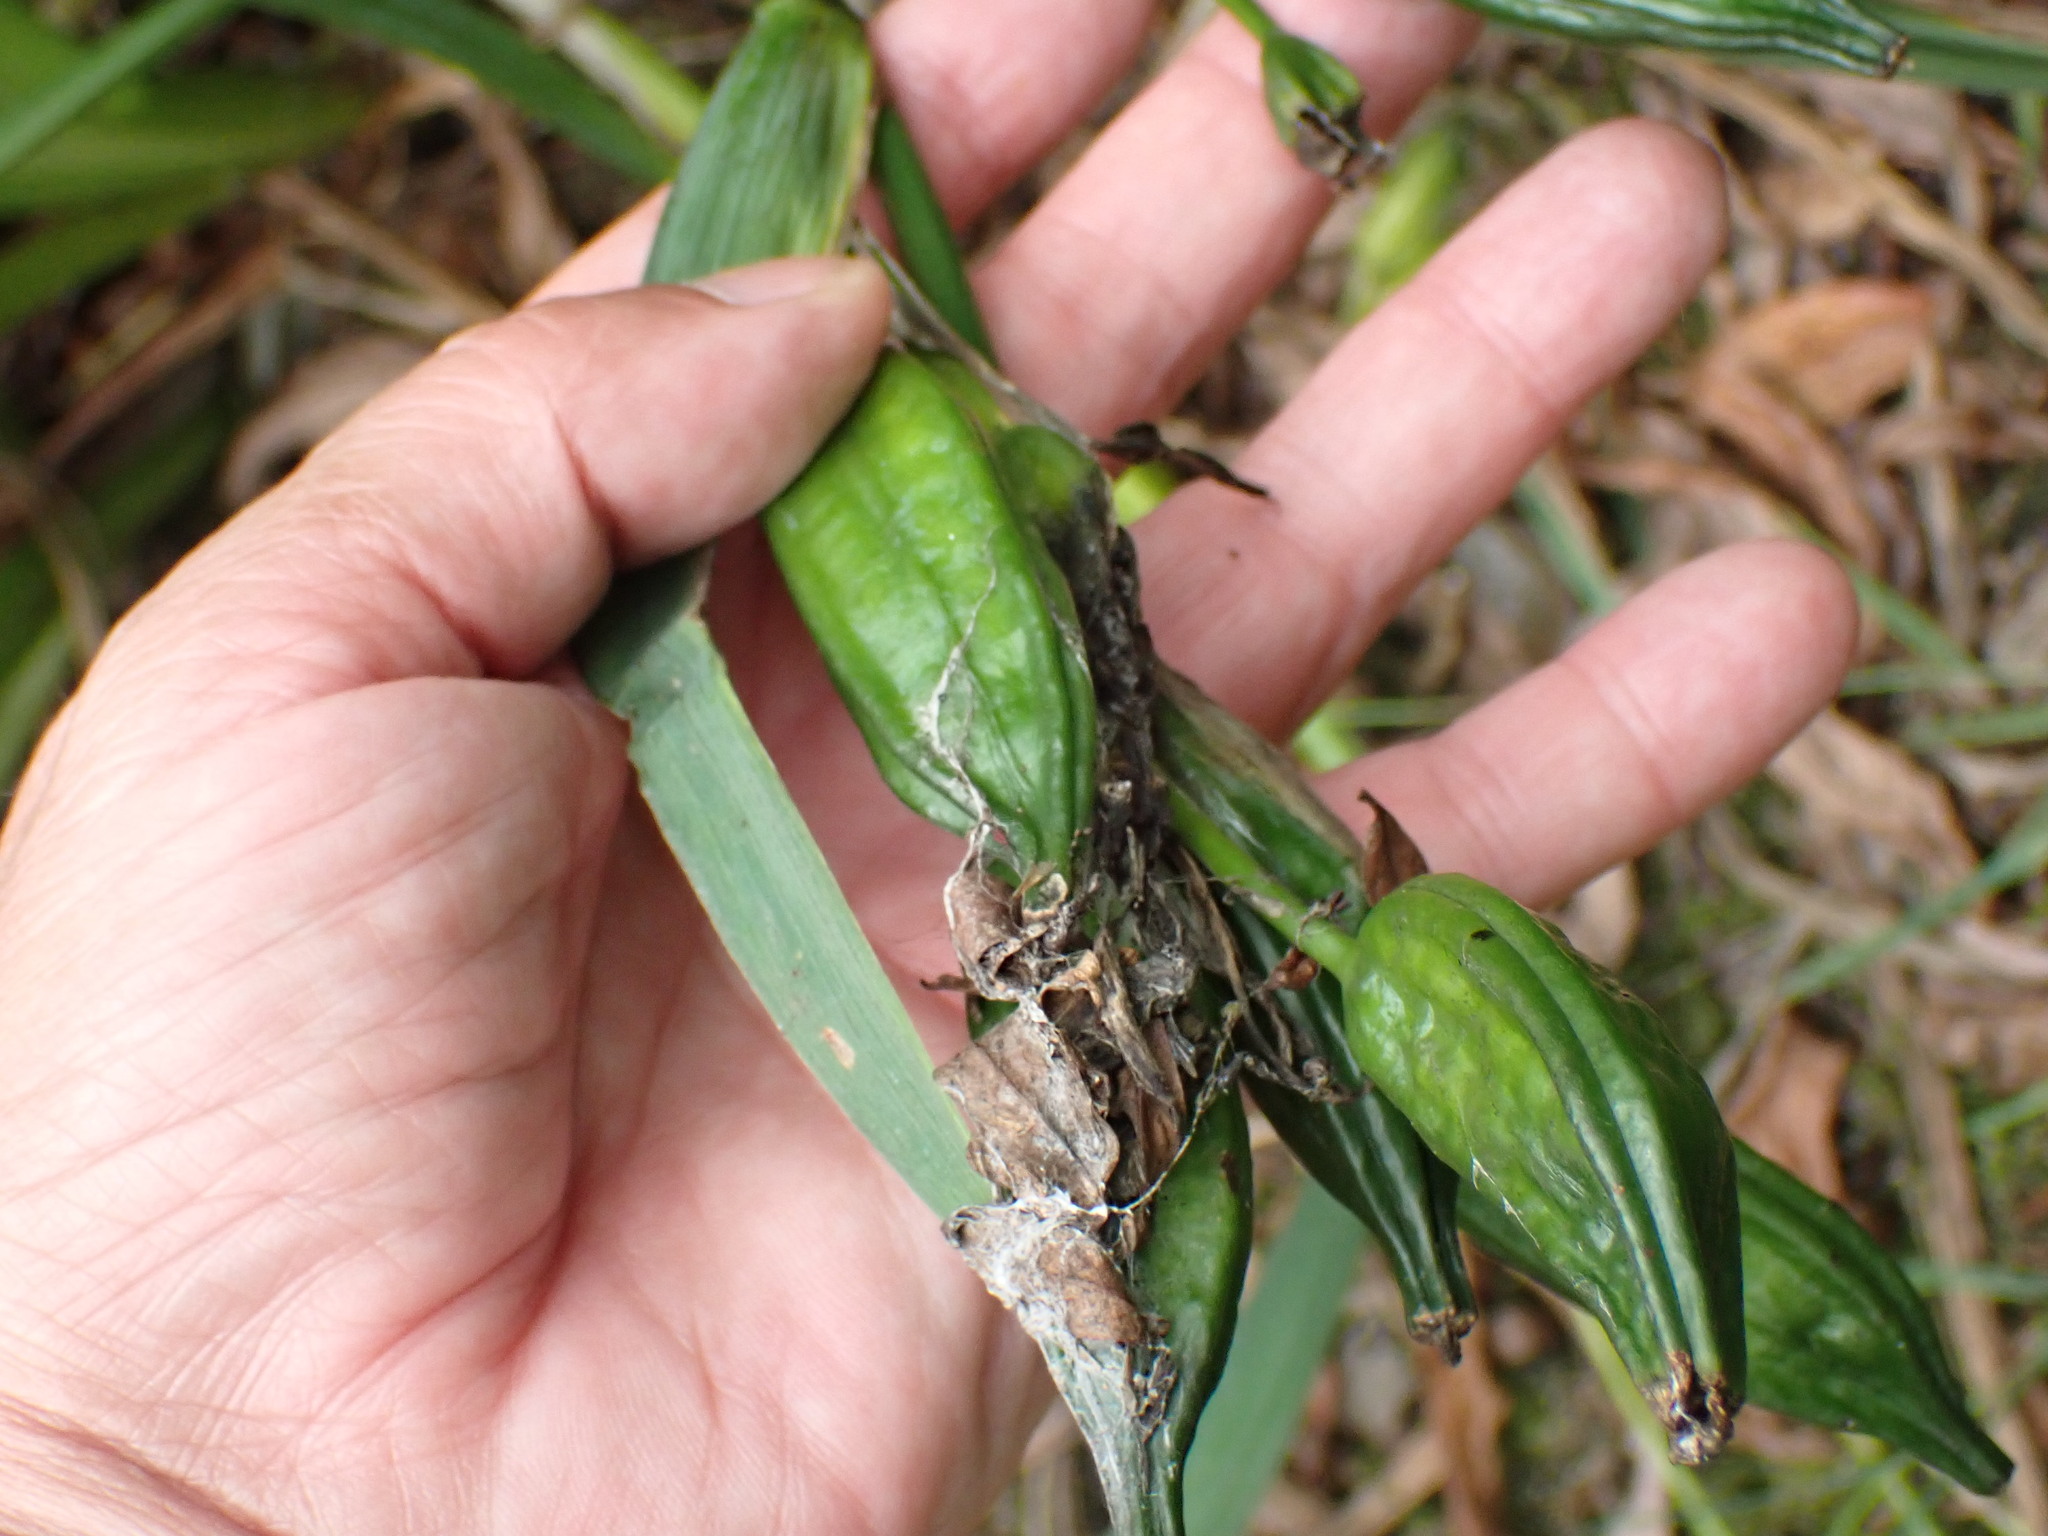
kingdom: Plantae
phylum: Tracheophyta
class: Liliopsida
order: Asparagales
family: Iridaceae
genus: Iris
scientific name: Iris pseudacorus
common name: Yellow flag
